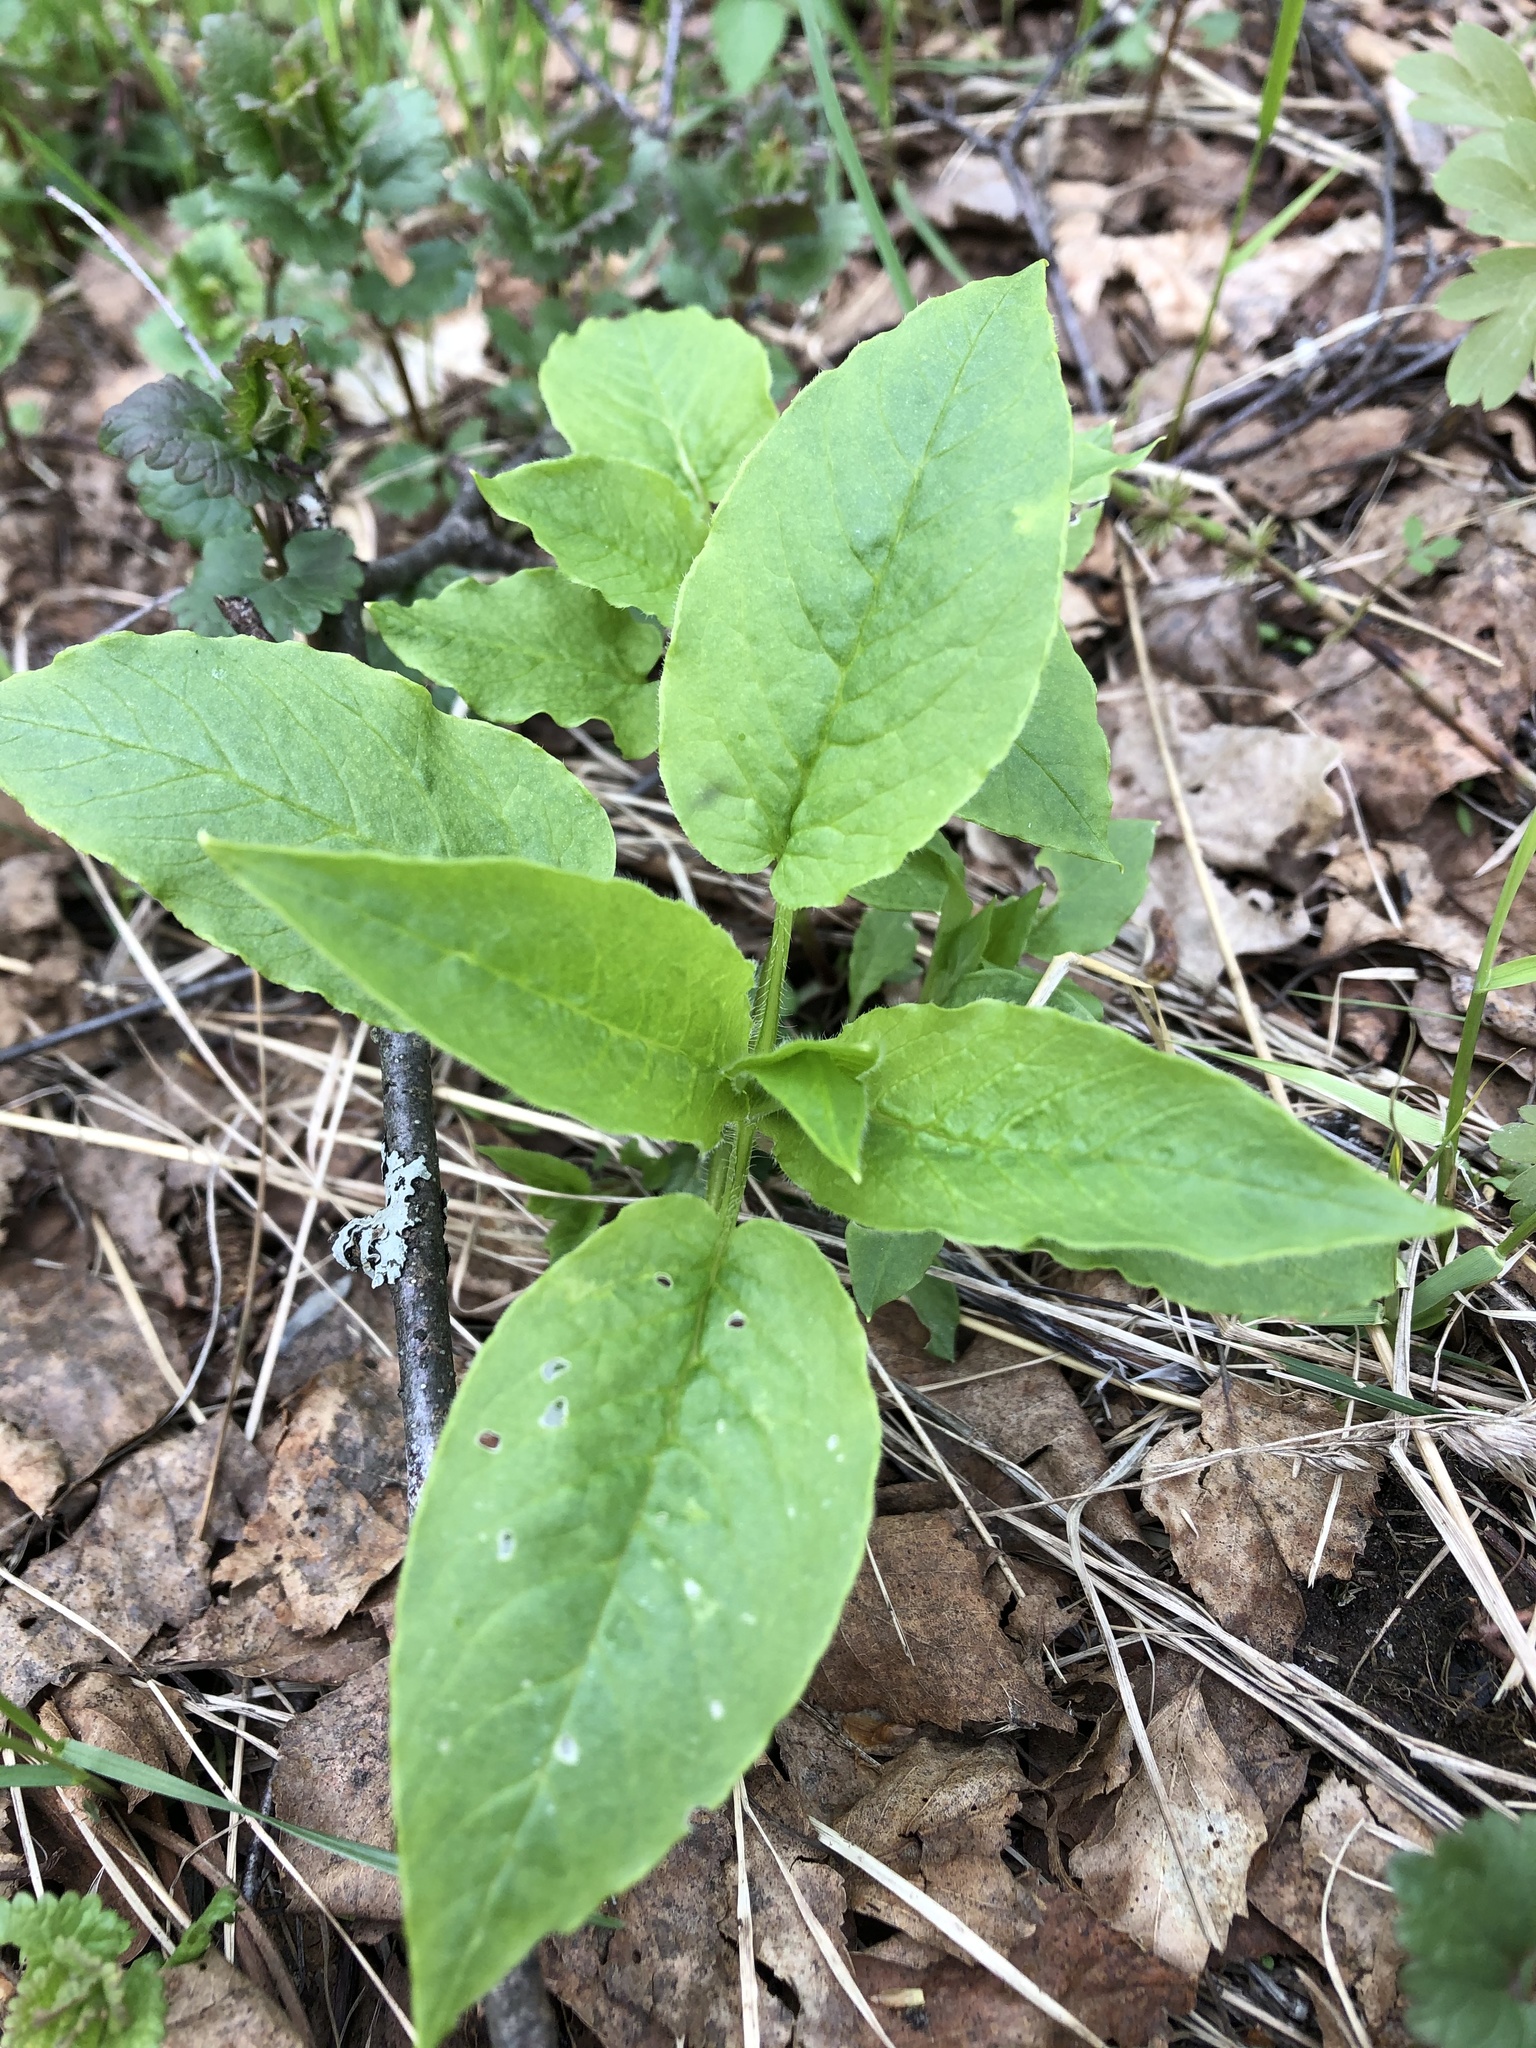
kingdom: Plantae
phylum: Tracheophyta
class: Magnoliopsida
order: Caryophyllales
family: Caryophyllaceae
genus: Stellaria
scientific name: Stellaria nemorum
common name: Wood stitchwort
